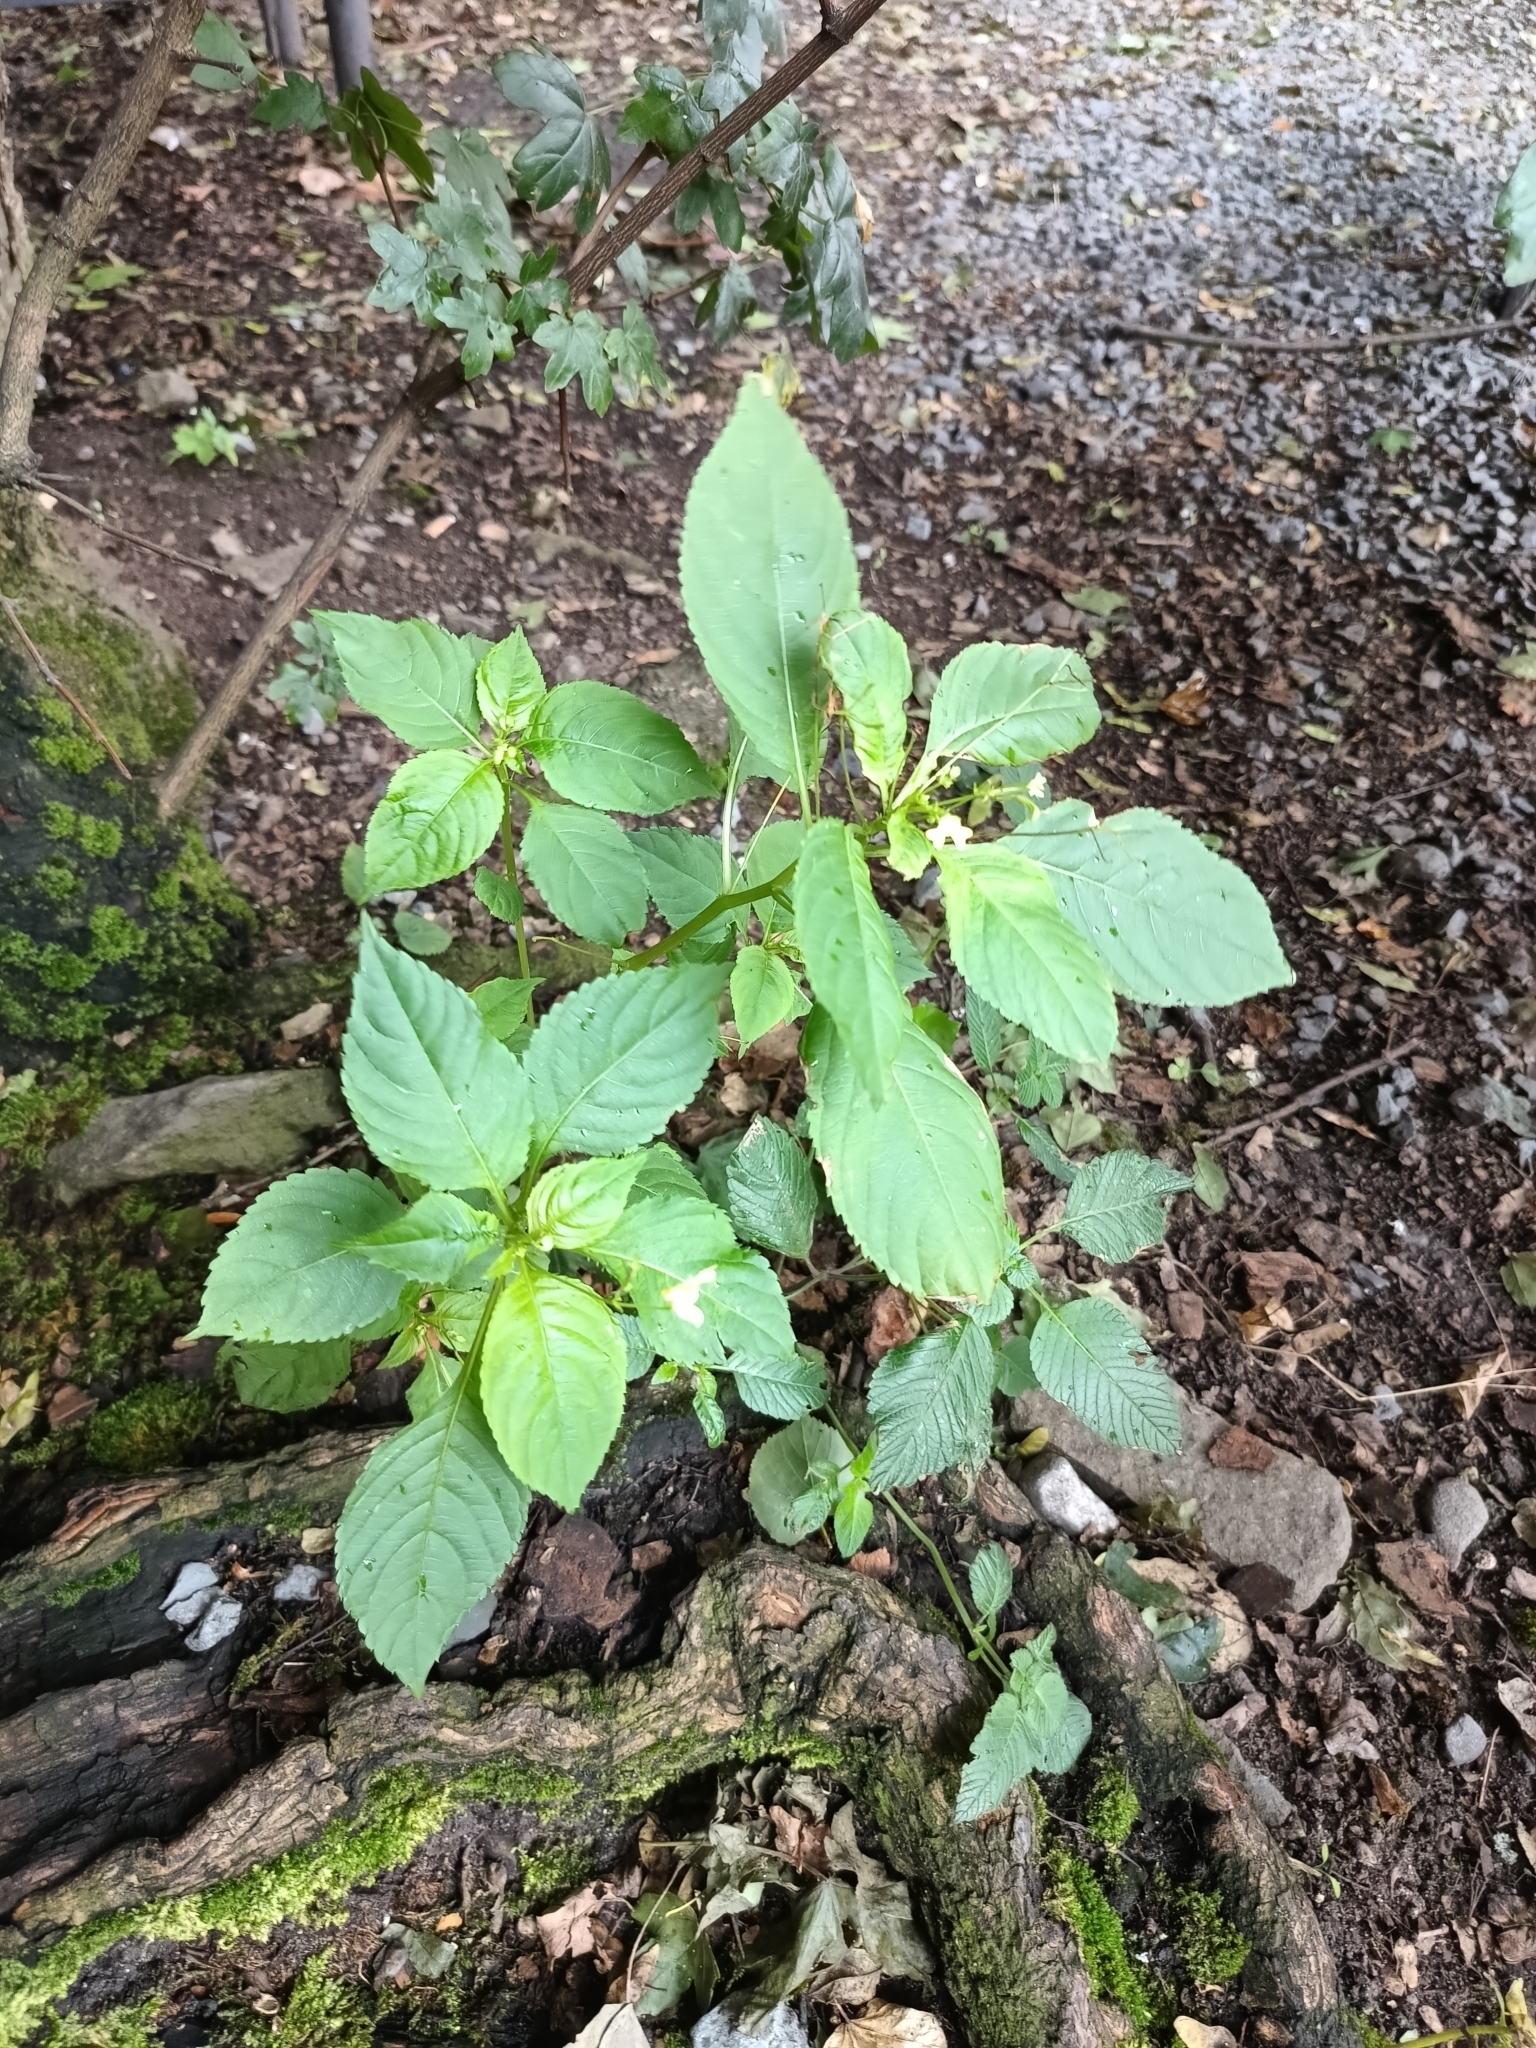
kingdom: Plantae
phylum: Tracheophyta
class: Magnoliopsida
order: Ericales
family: Balsaminaceae
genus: Impatiens
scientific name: Impatiens parviflora
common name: Small balsam
